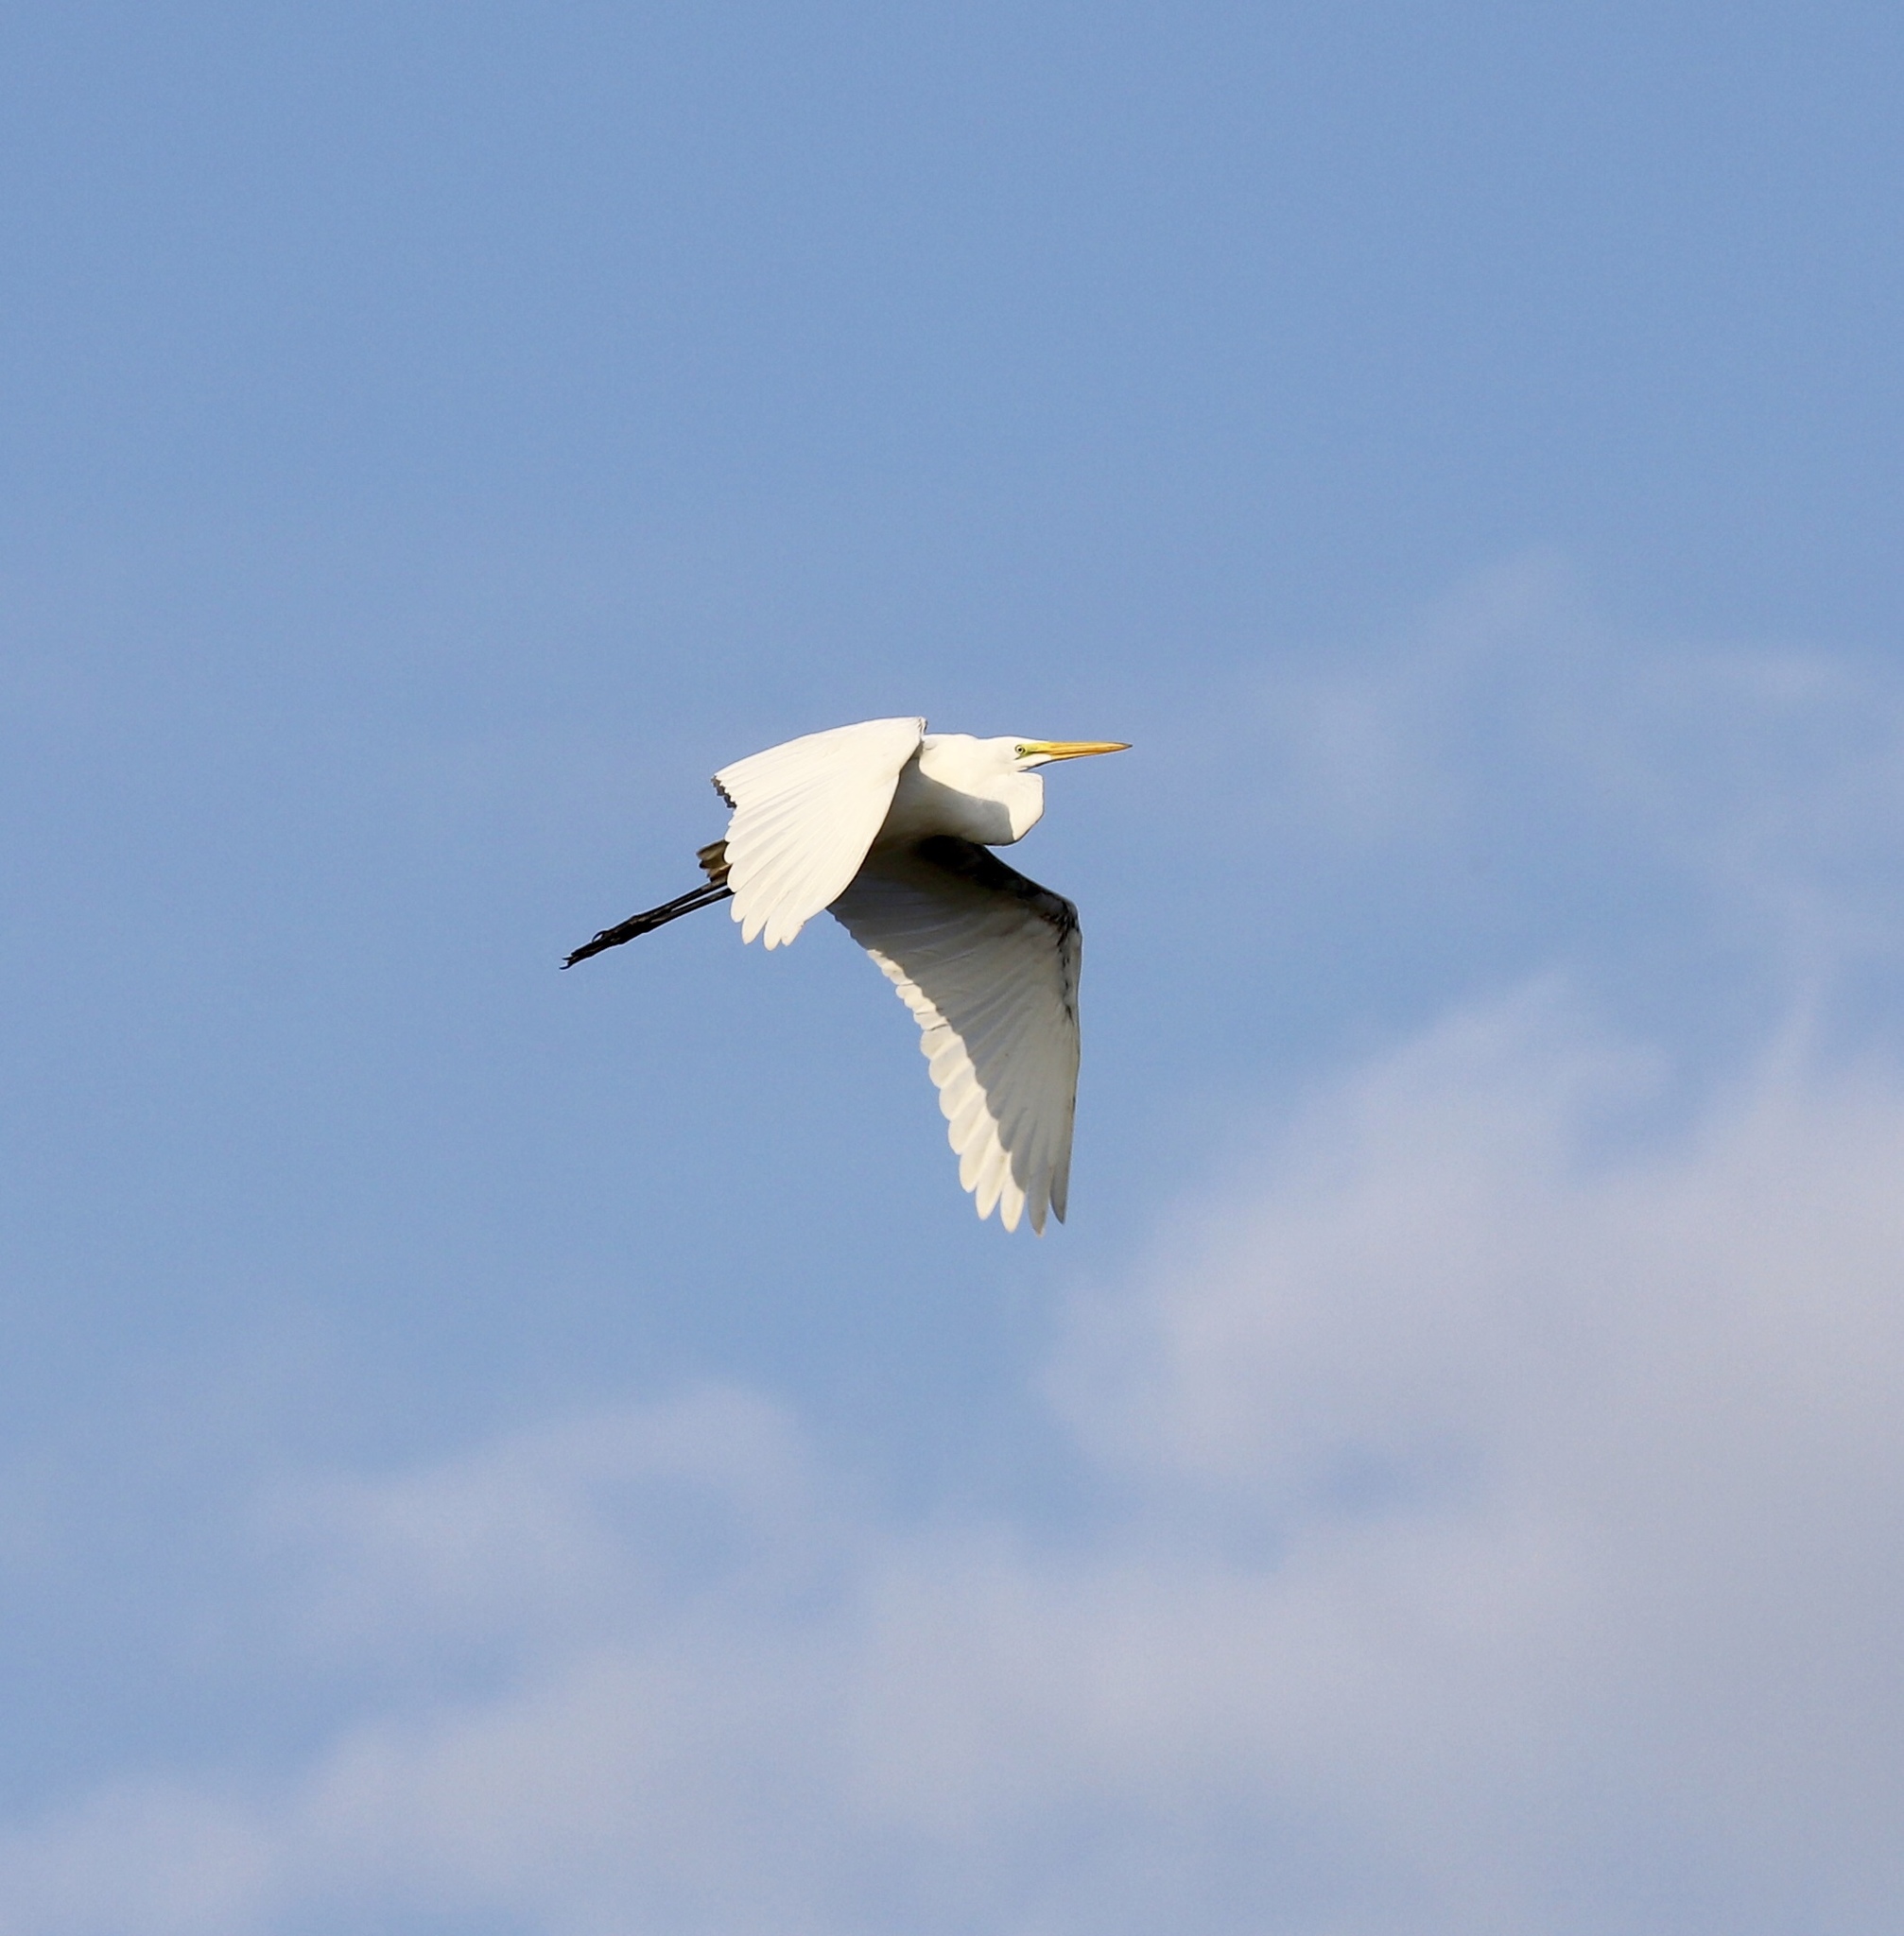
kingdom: Animalia
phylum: Chordata
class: Aves
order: Pelecaniformes
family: Ardeidae
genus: Ardea
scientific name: Ardea alba
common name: Great egret
